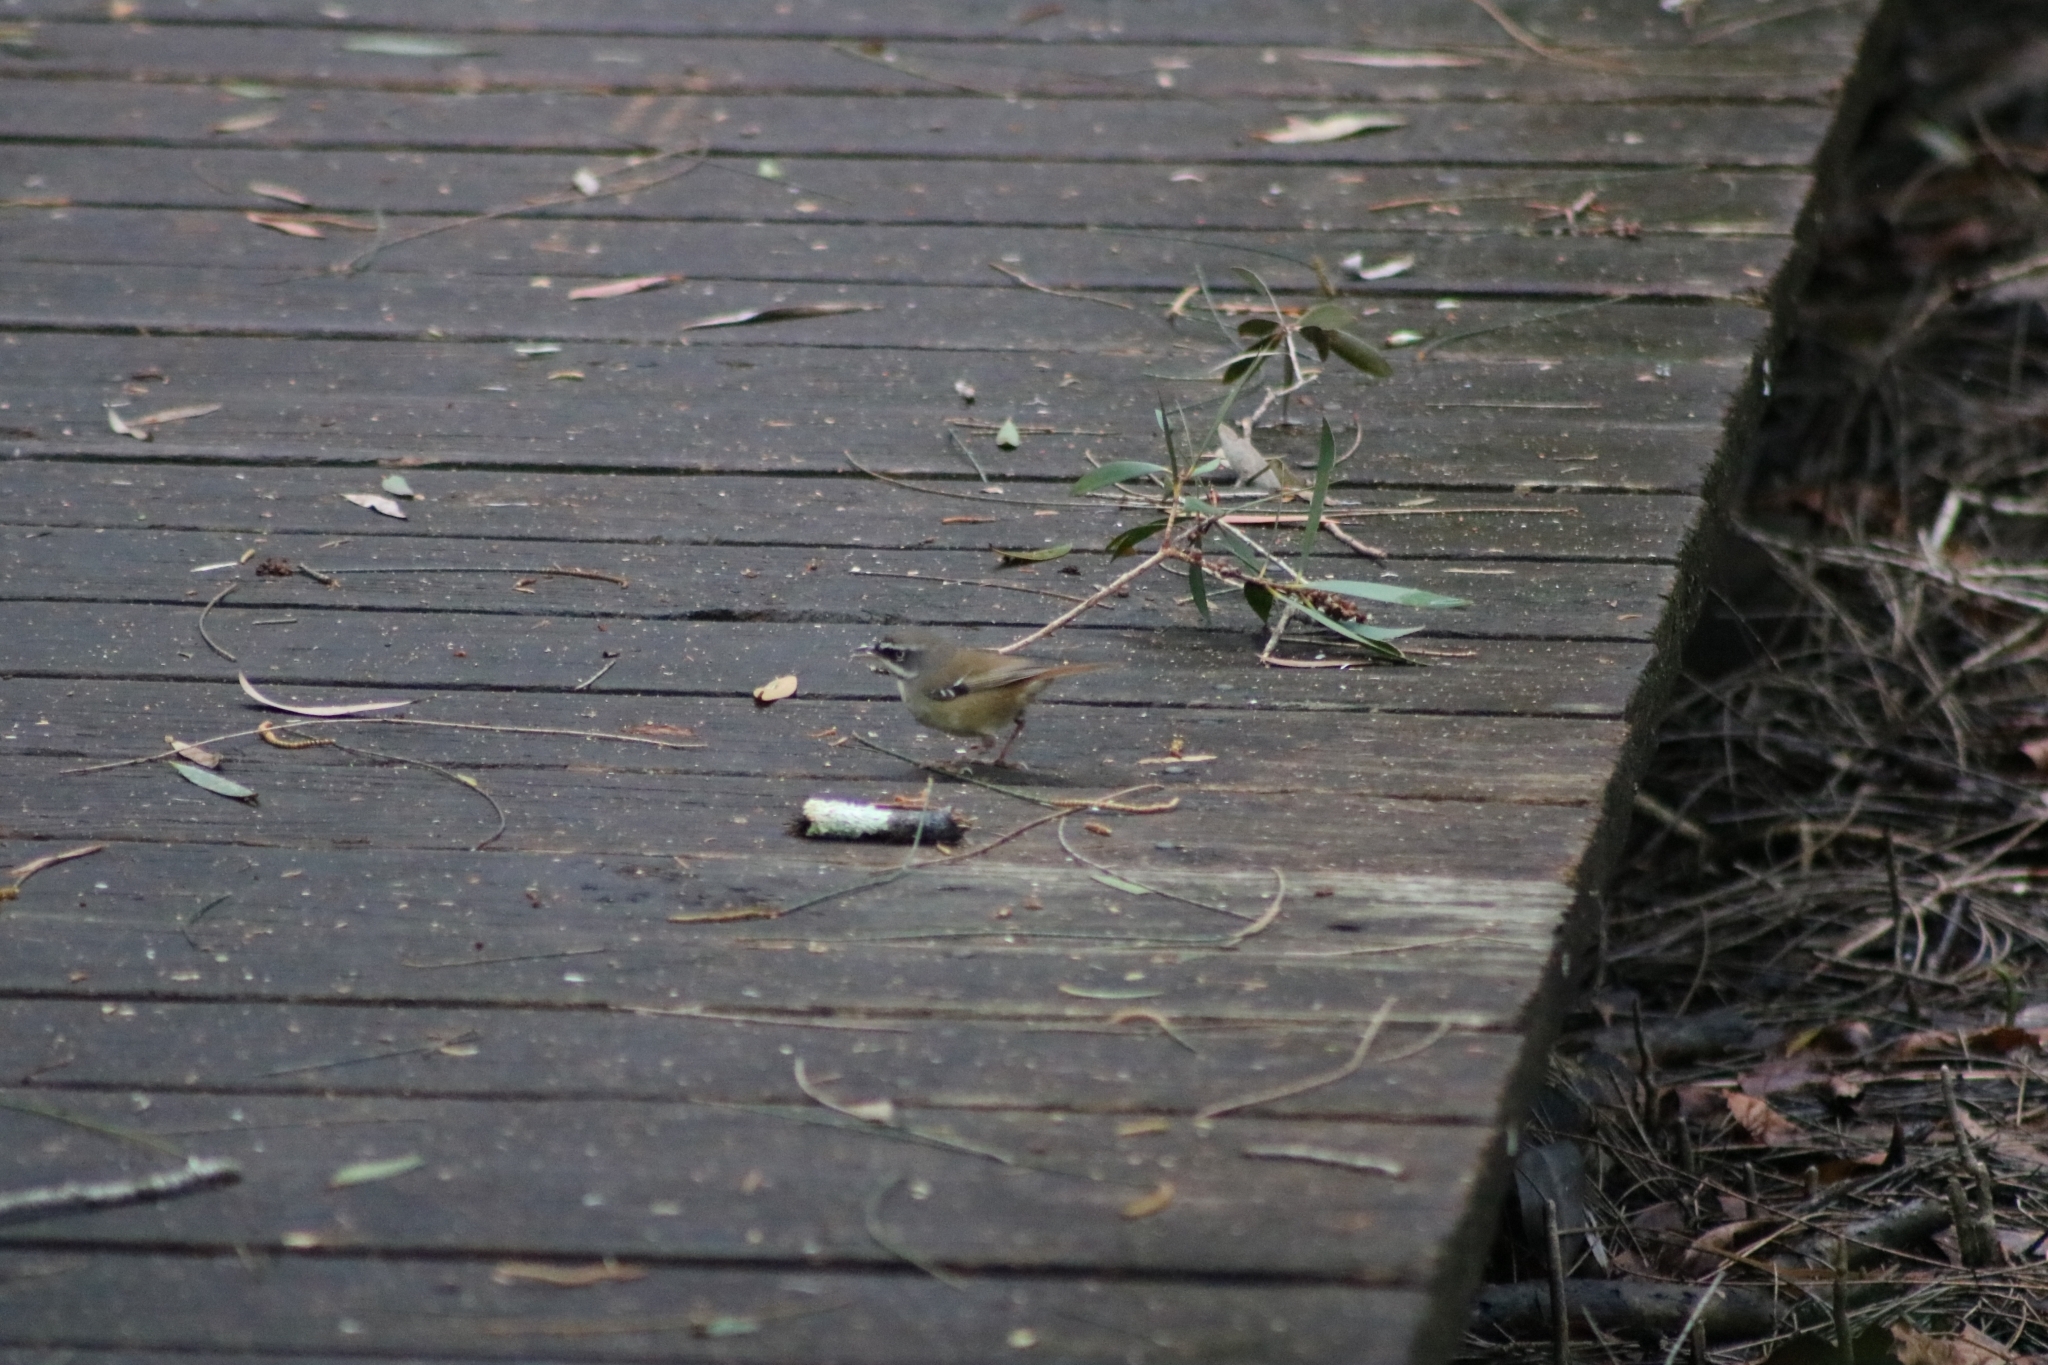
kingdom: Animalia
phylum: Chordata
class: Aves
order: Passeriformes
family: Acanthizidae
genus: Sericornis
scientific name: Sericornis frontalis
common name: White-browed scrubwren
